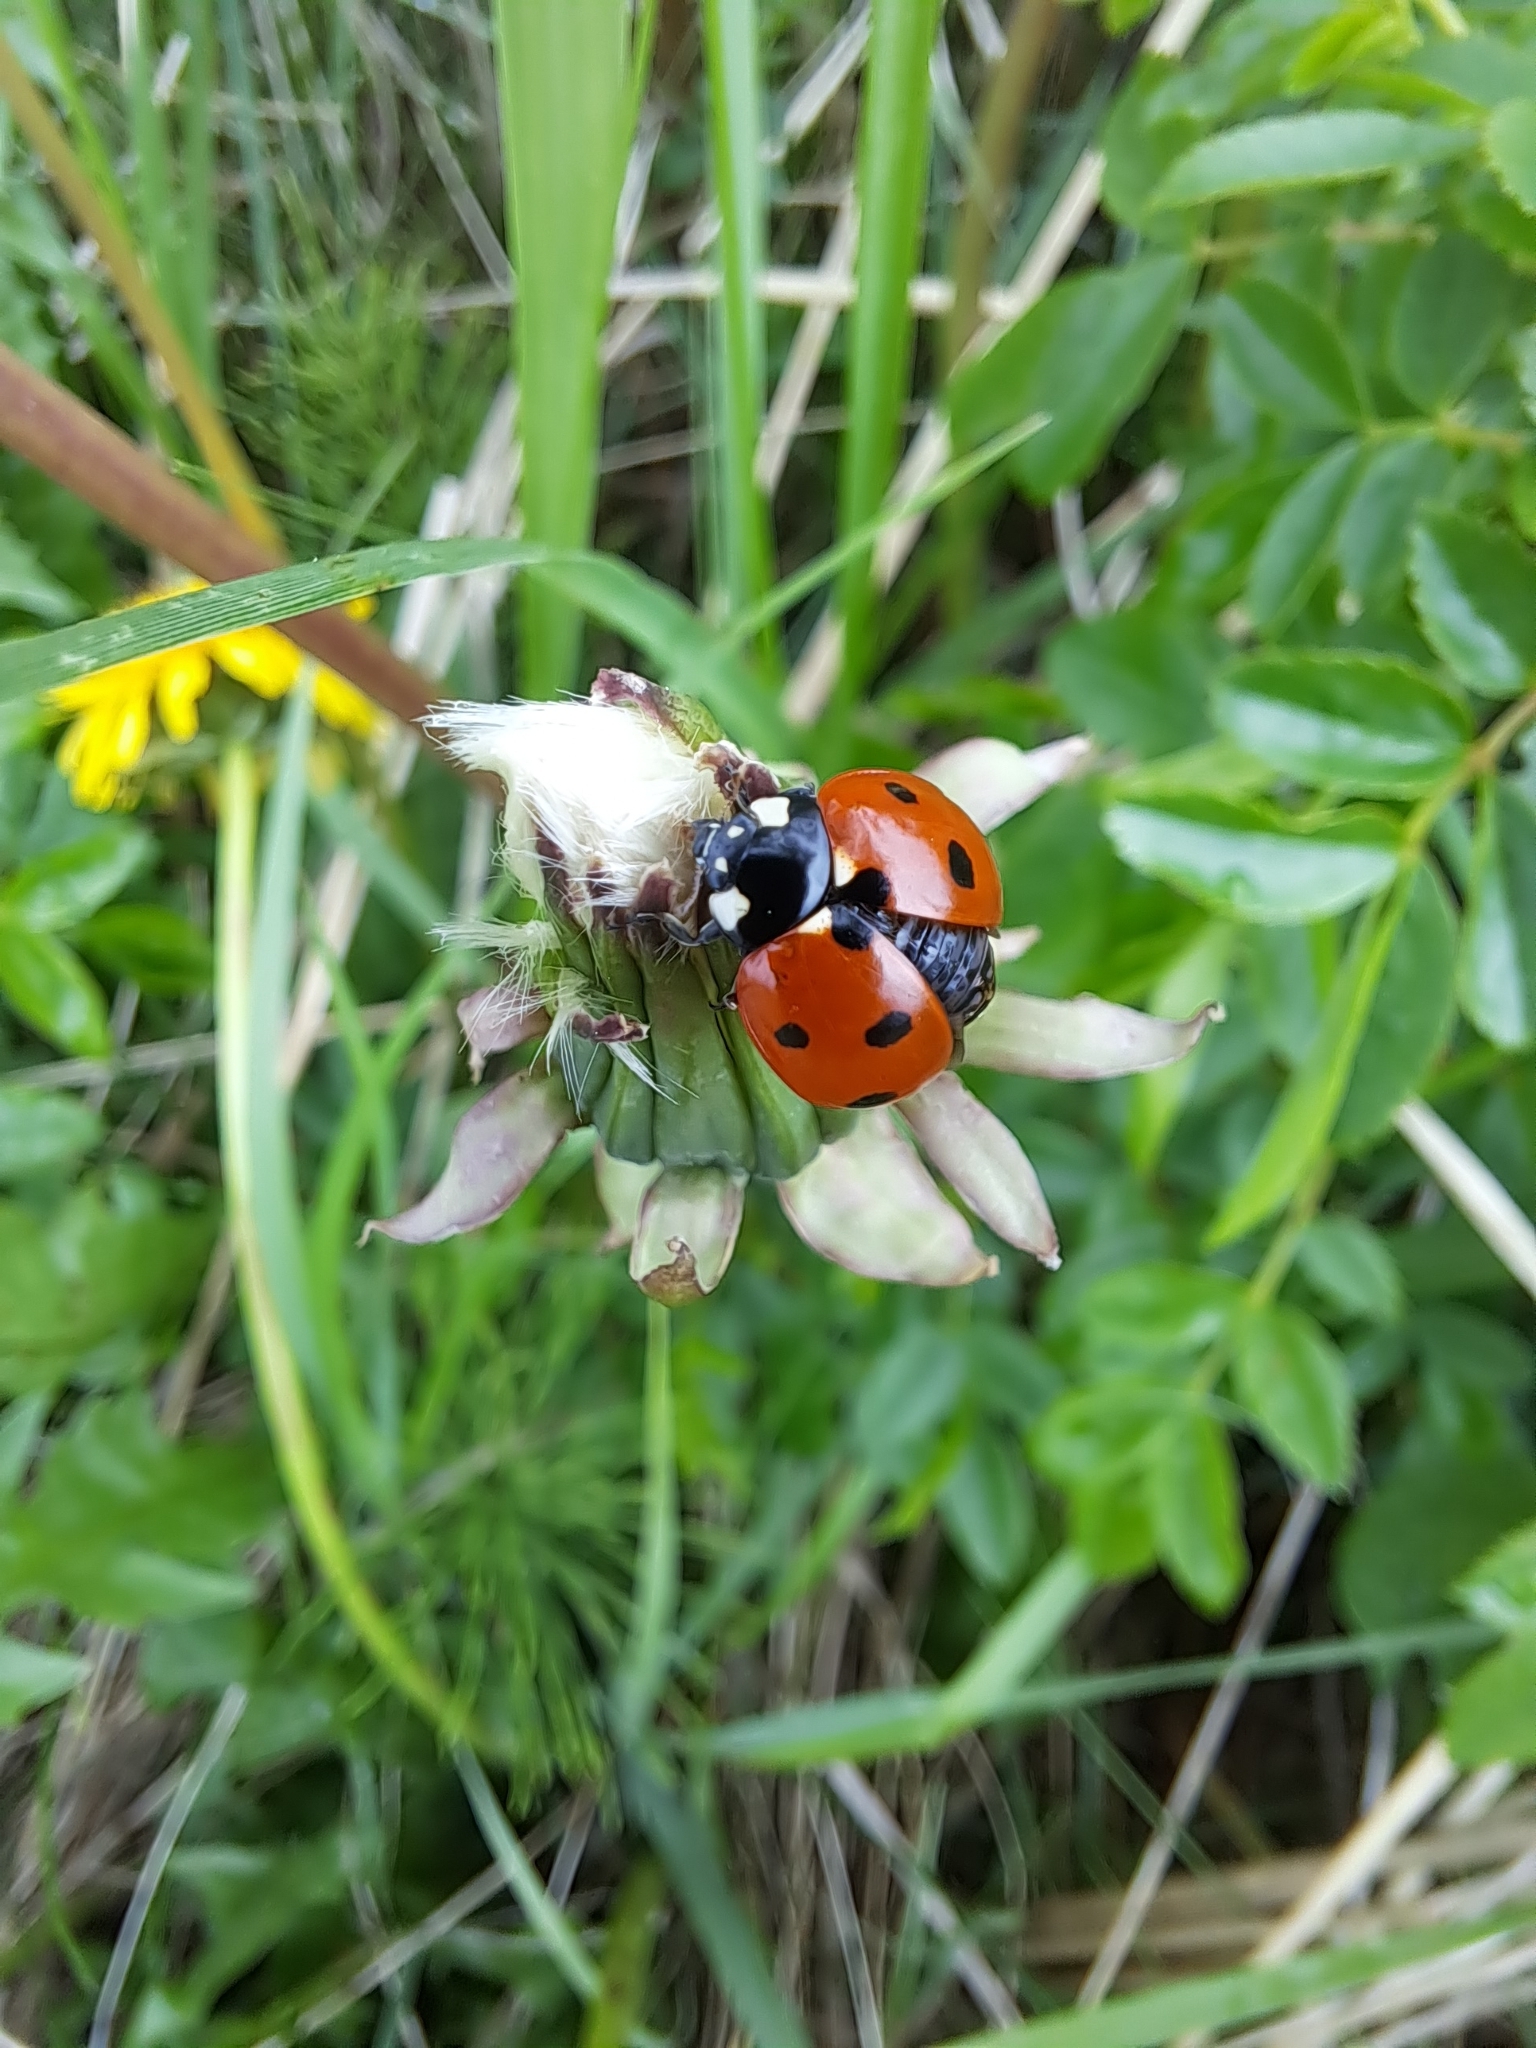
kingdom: Animalia
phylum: Arthropoda
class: Insecta
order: Coleoptera
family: Coccinellidae
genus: Coccinella
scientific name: Coccinella septempunctata
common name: Sevenspotted lady beetle
